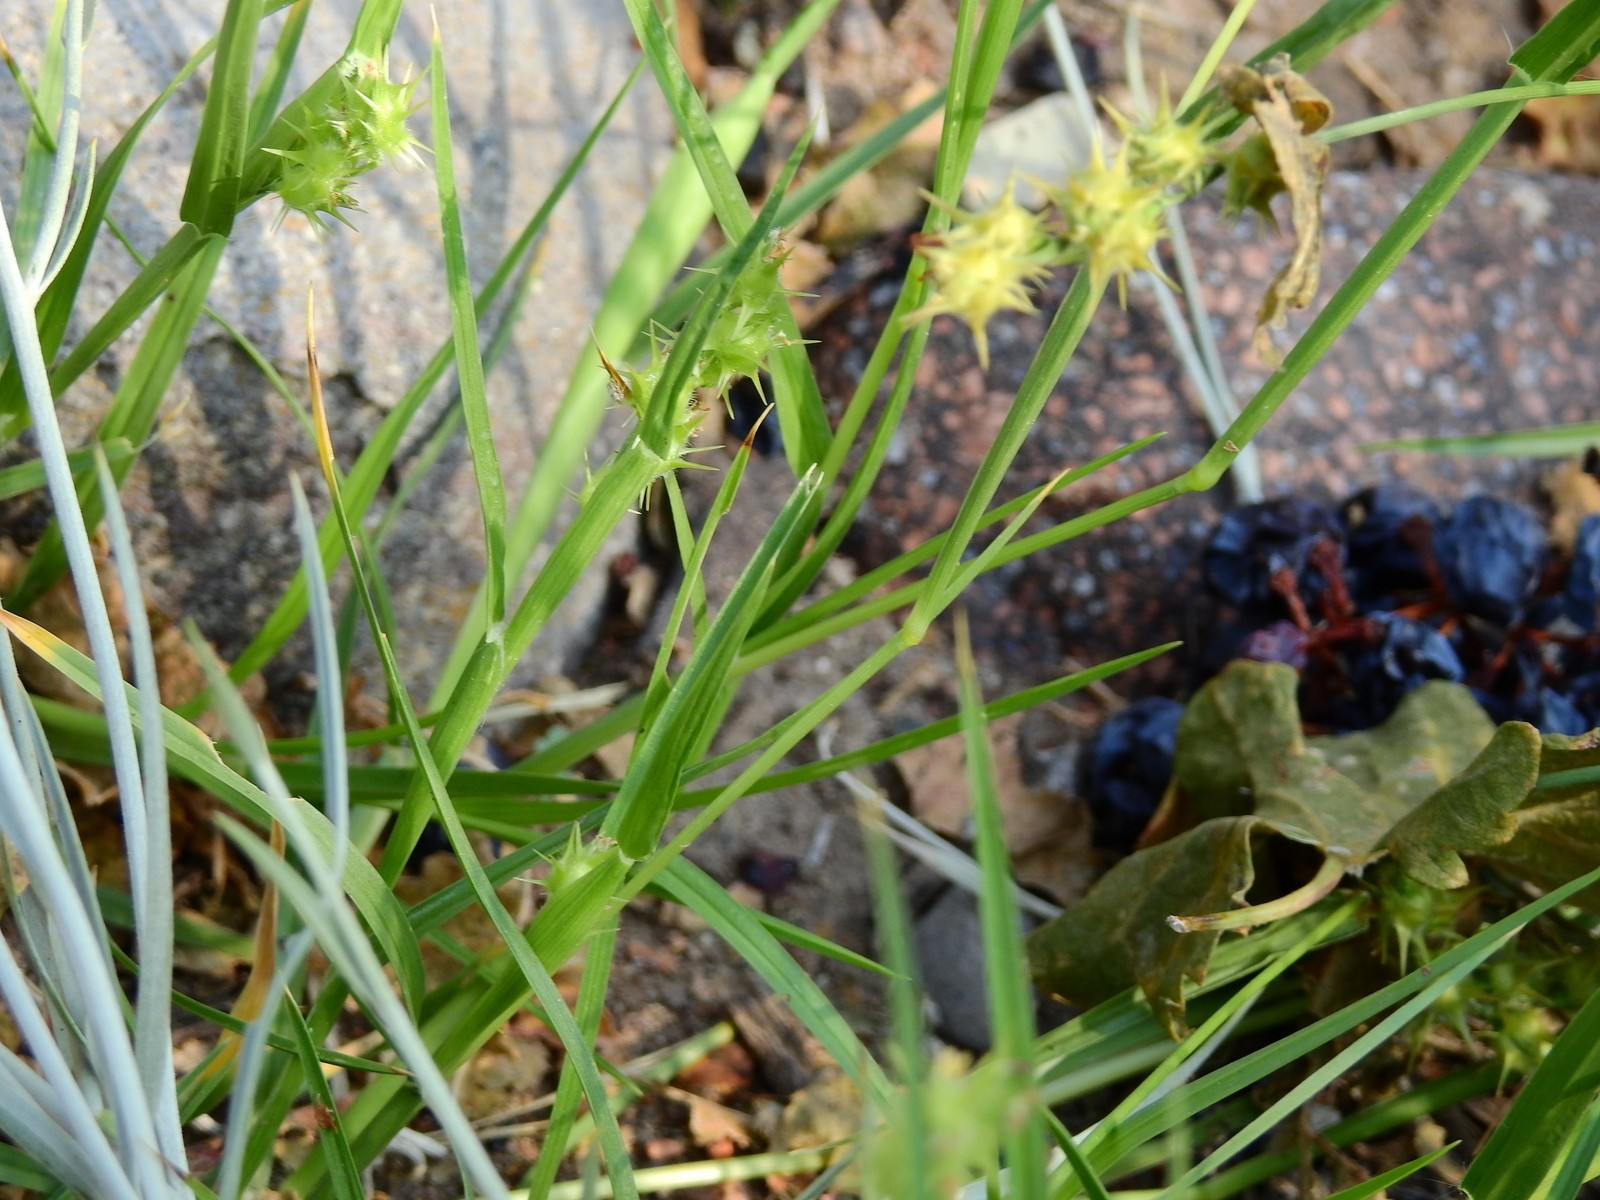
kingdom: Plantae
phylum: Tracheophyta
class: Liliopsida
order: Poales
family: Poaceae
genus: Cenchrus
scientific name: Cenchrus spinifex
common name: Coast sandbur
